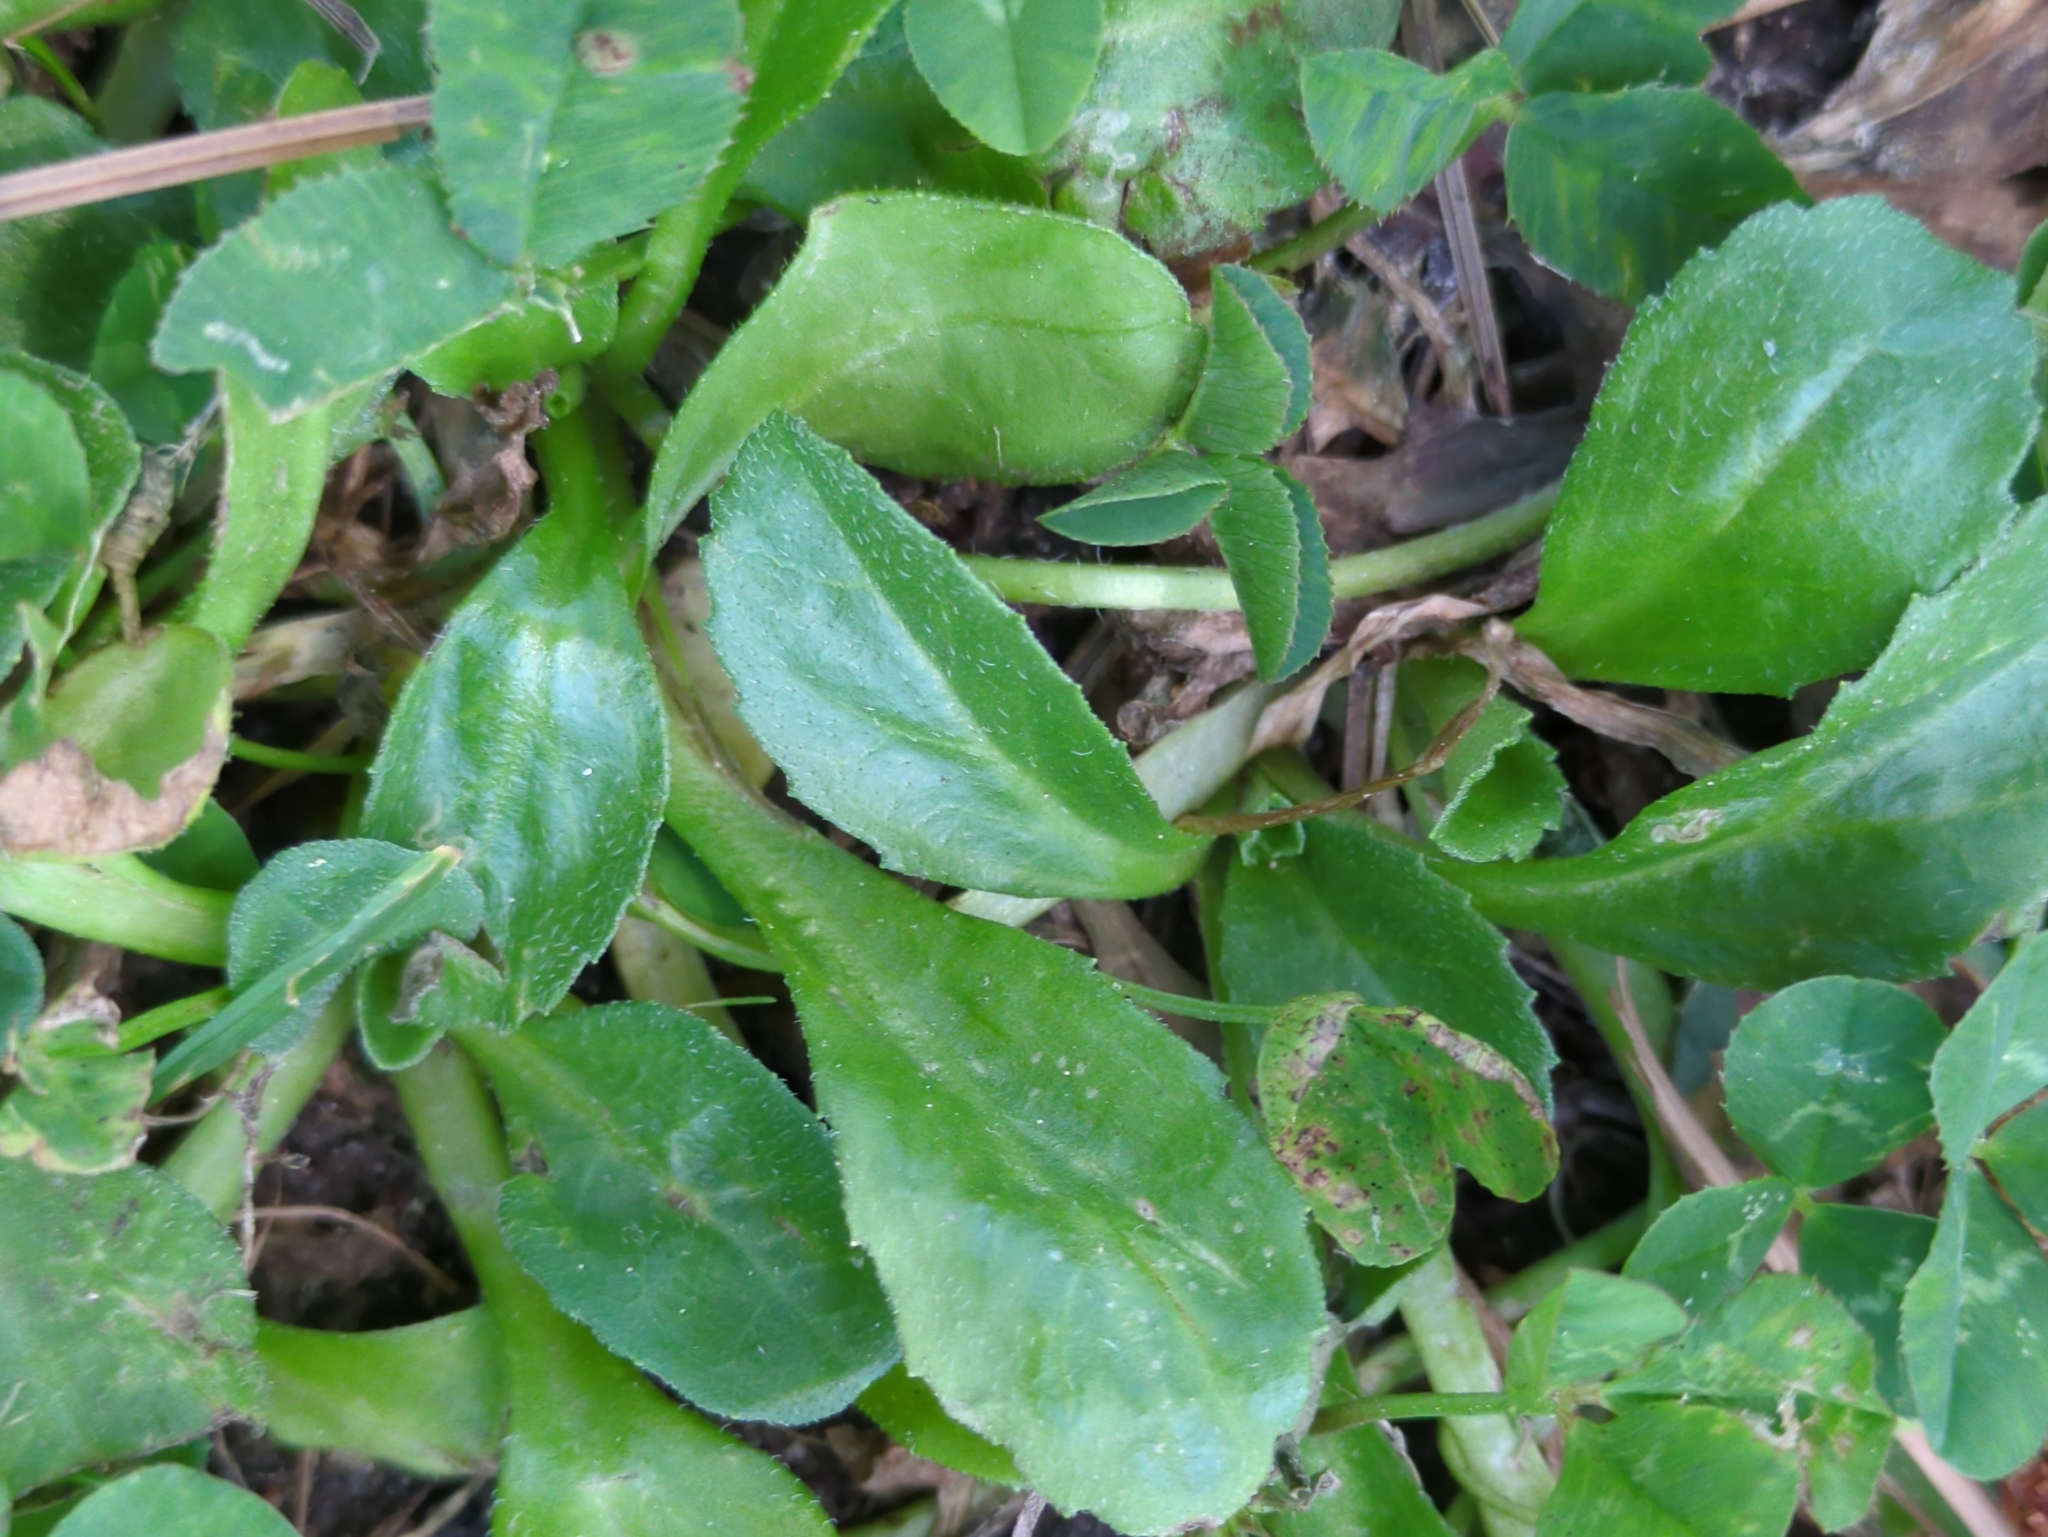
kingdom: Plantae
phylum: Tracheophyta
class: Magnoliopsida
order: Asterales
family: Asteraceae
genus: Bellis
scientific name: Bellis perennis
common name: Lawndaisy
